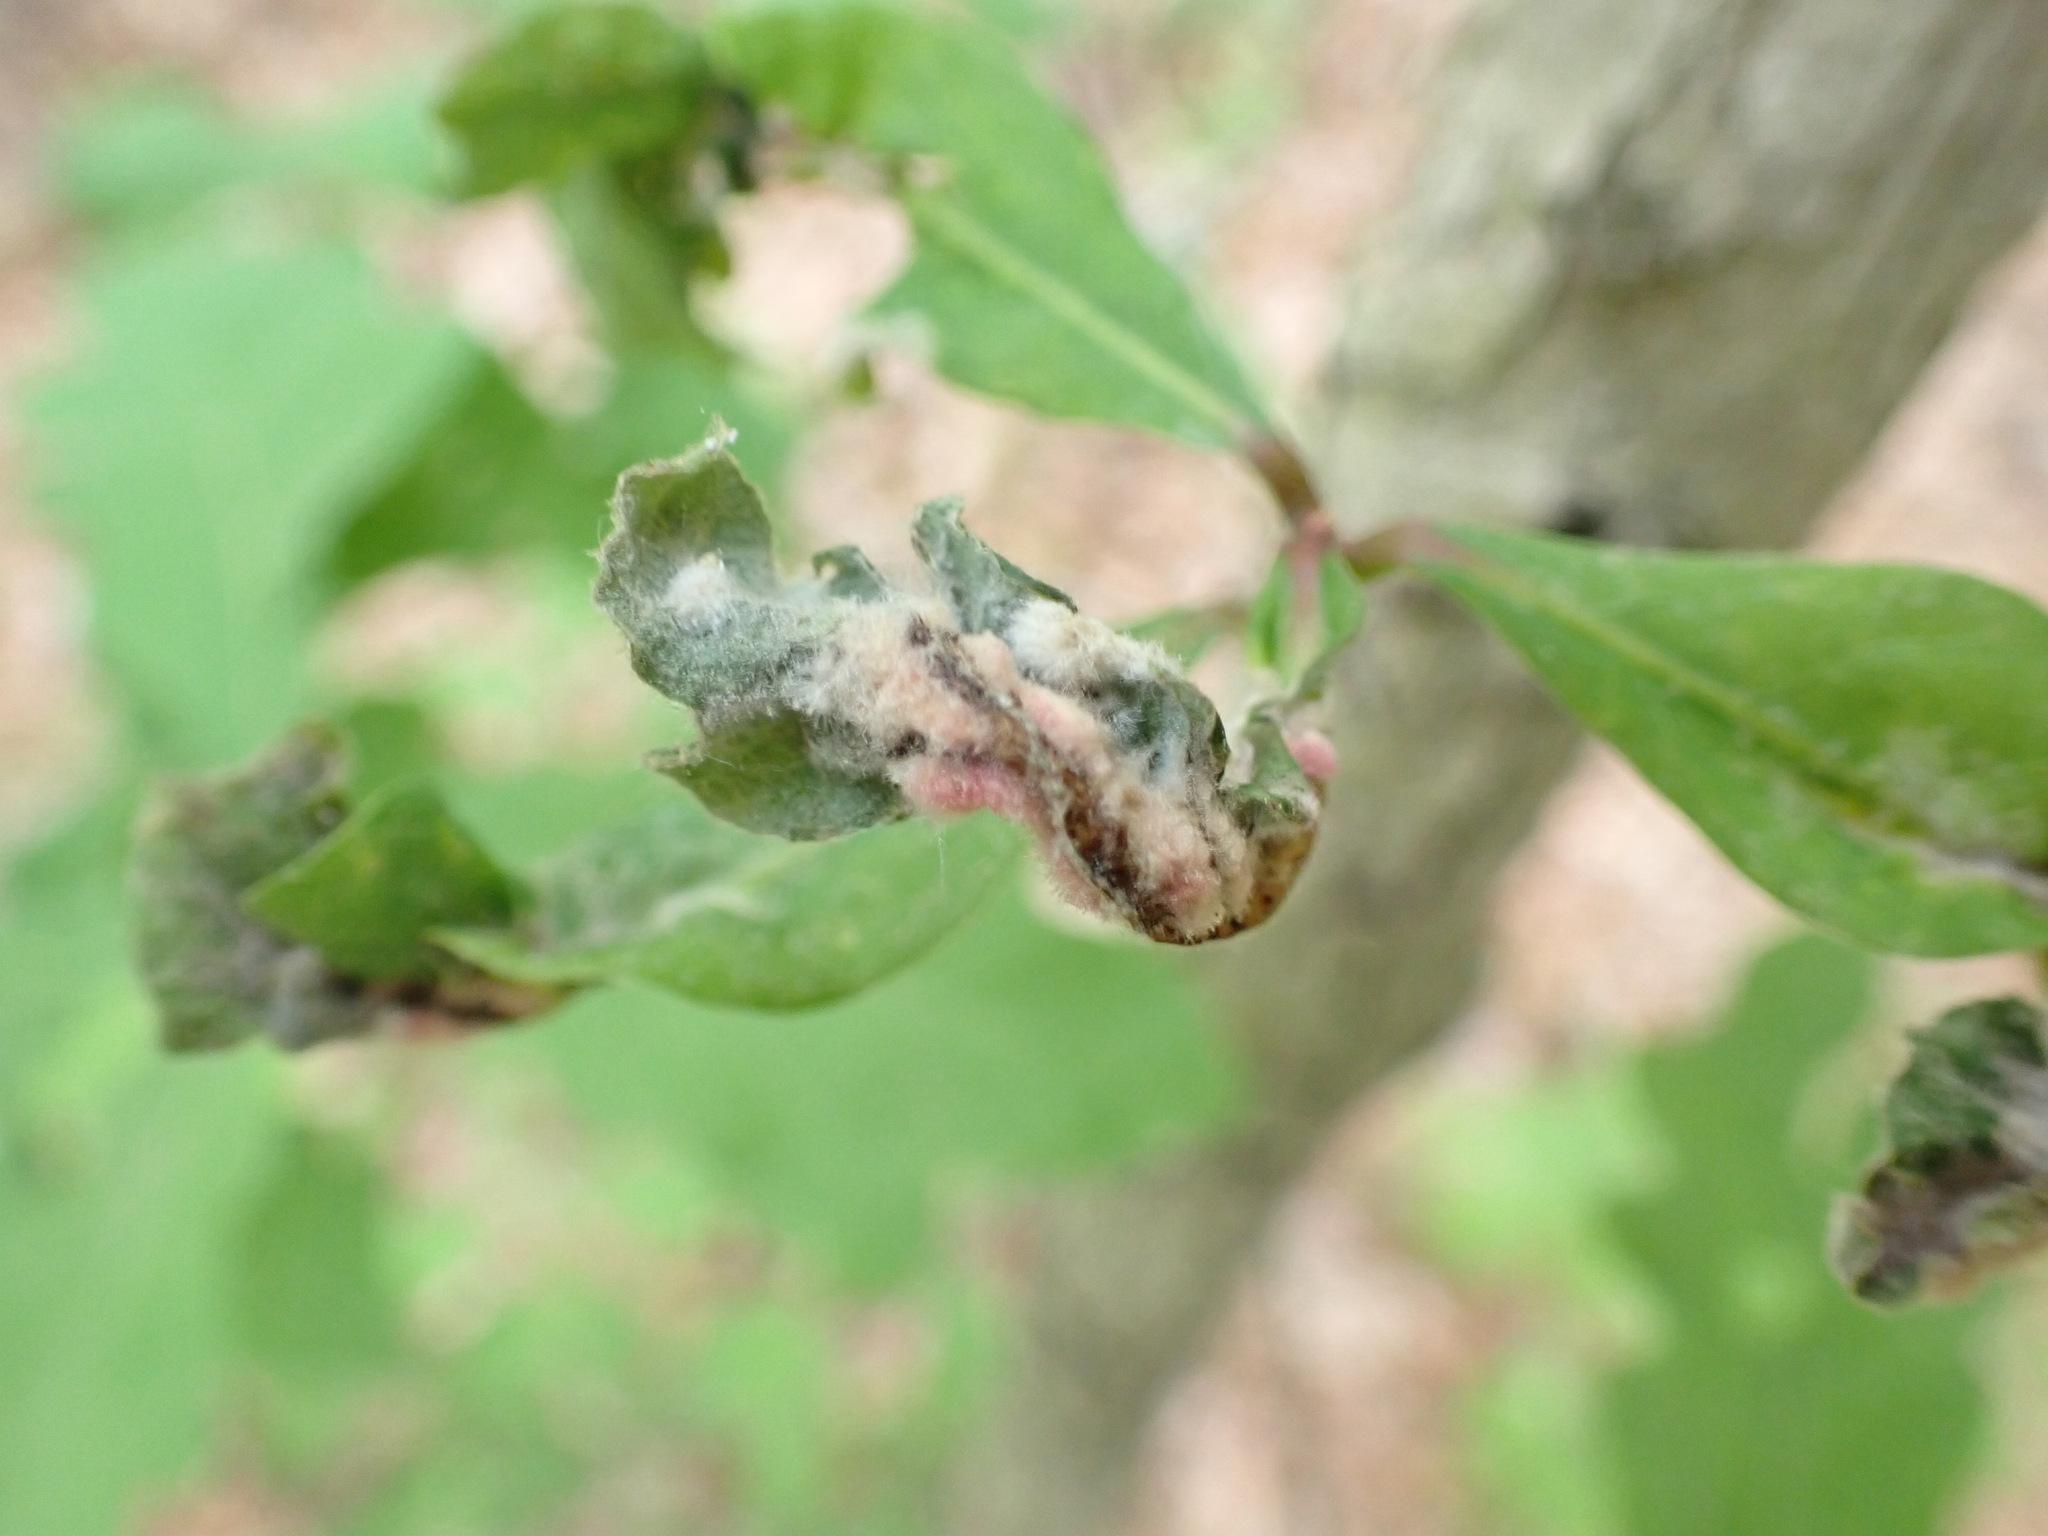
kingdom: Animalia
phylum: Arthropoda
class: Insecta
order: Diptera
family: Cecidomyiidae
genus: Macrodiplosis
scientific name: Macrodiplosis niveipila
